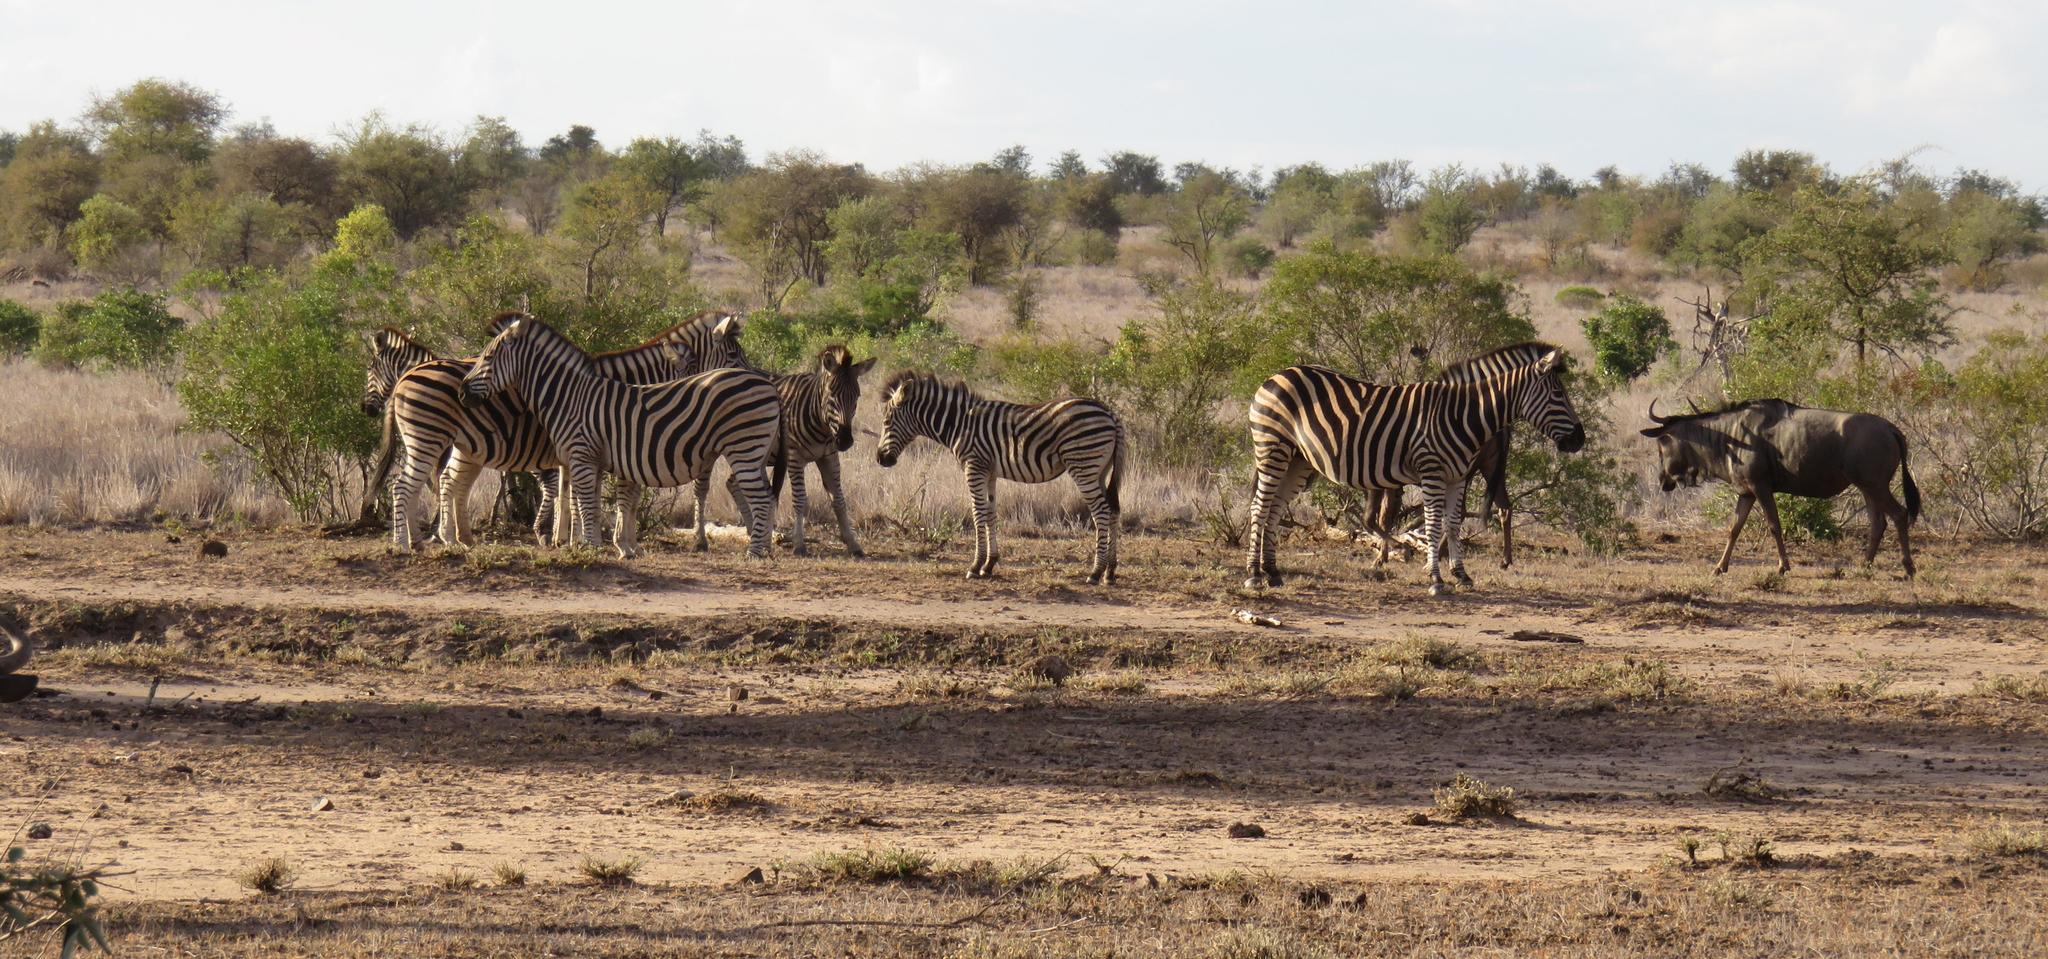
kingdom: Animalia
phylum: Chordata
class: Mammalia
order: Perissodactyla
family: Equidae
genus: Equus
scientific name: Equus quagga
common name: Plains zebra
